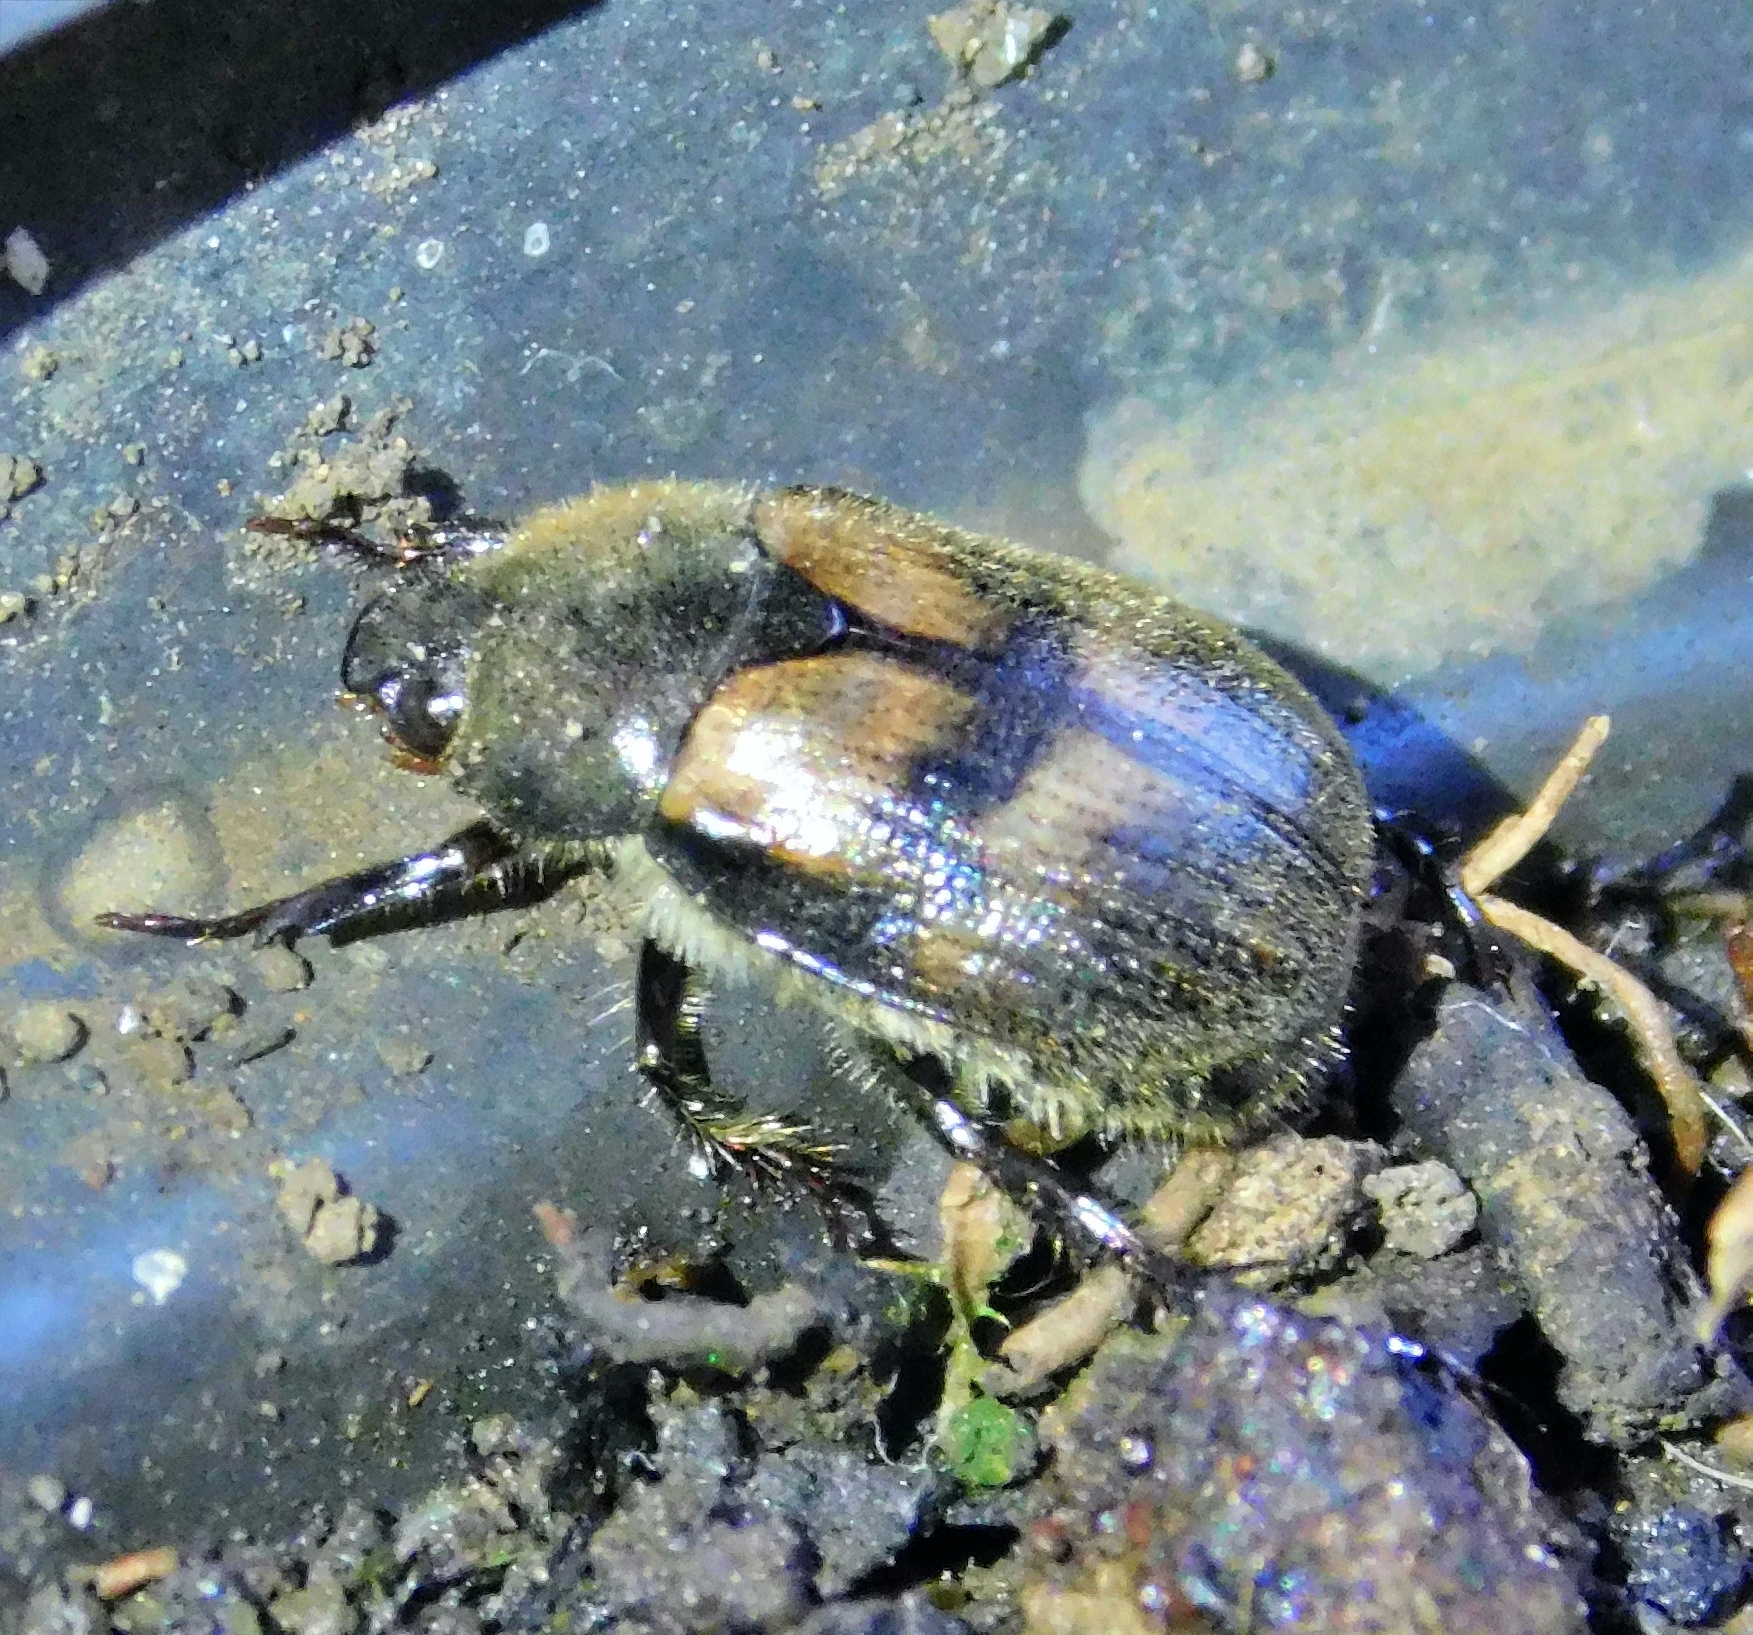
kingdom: Animalia
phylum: Arthropoda
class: Insecta
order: Coleoptera
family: Scarabaeidae
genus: Paranomala
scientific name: Paranomala eucoma
